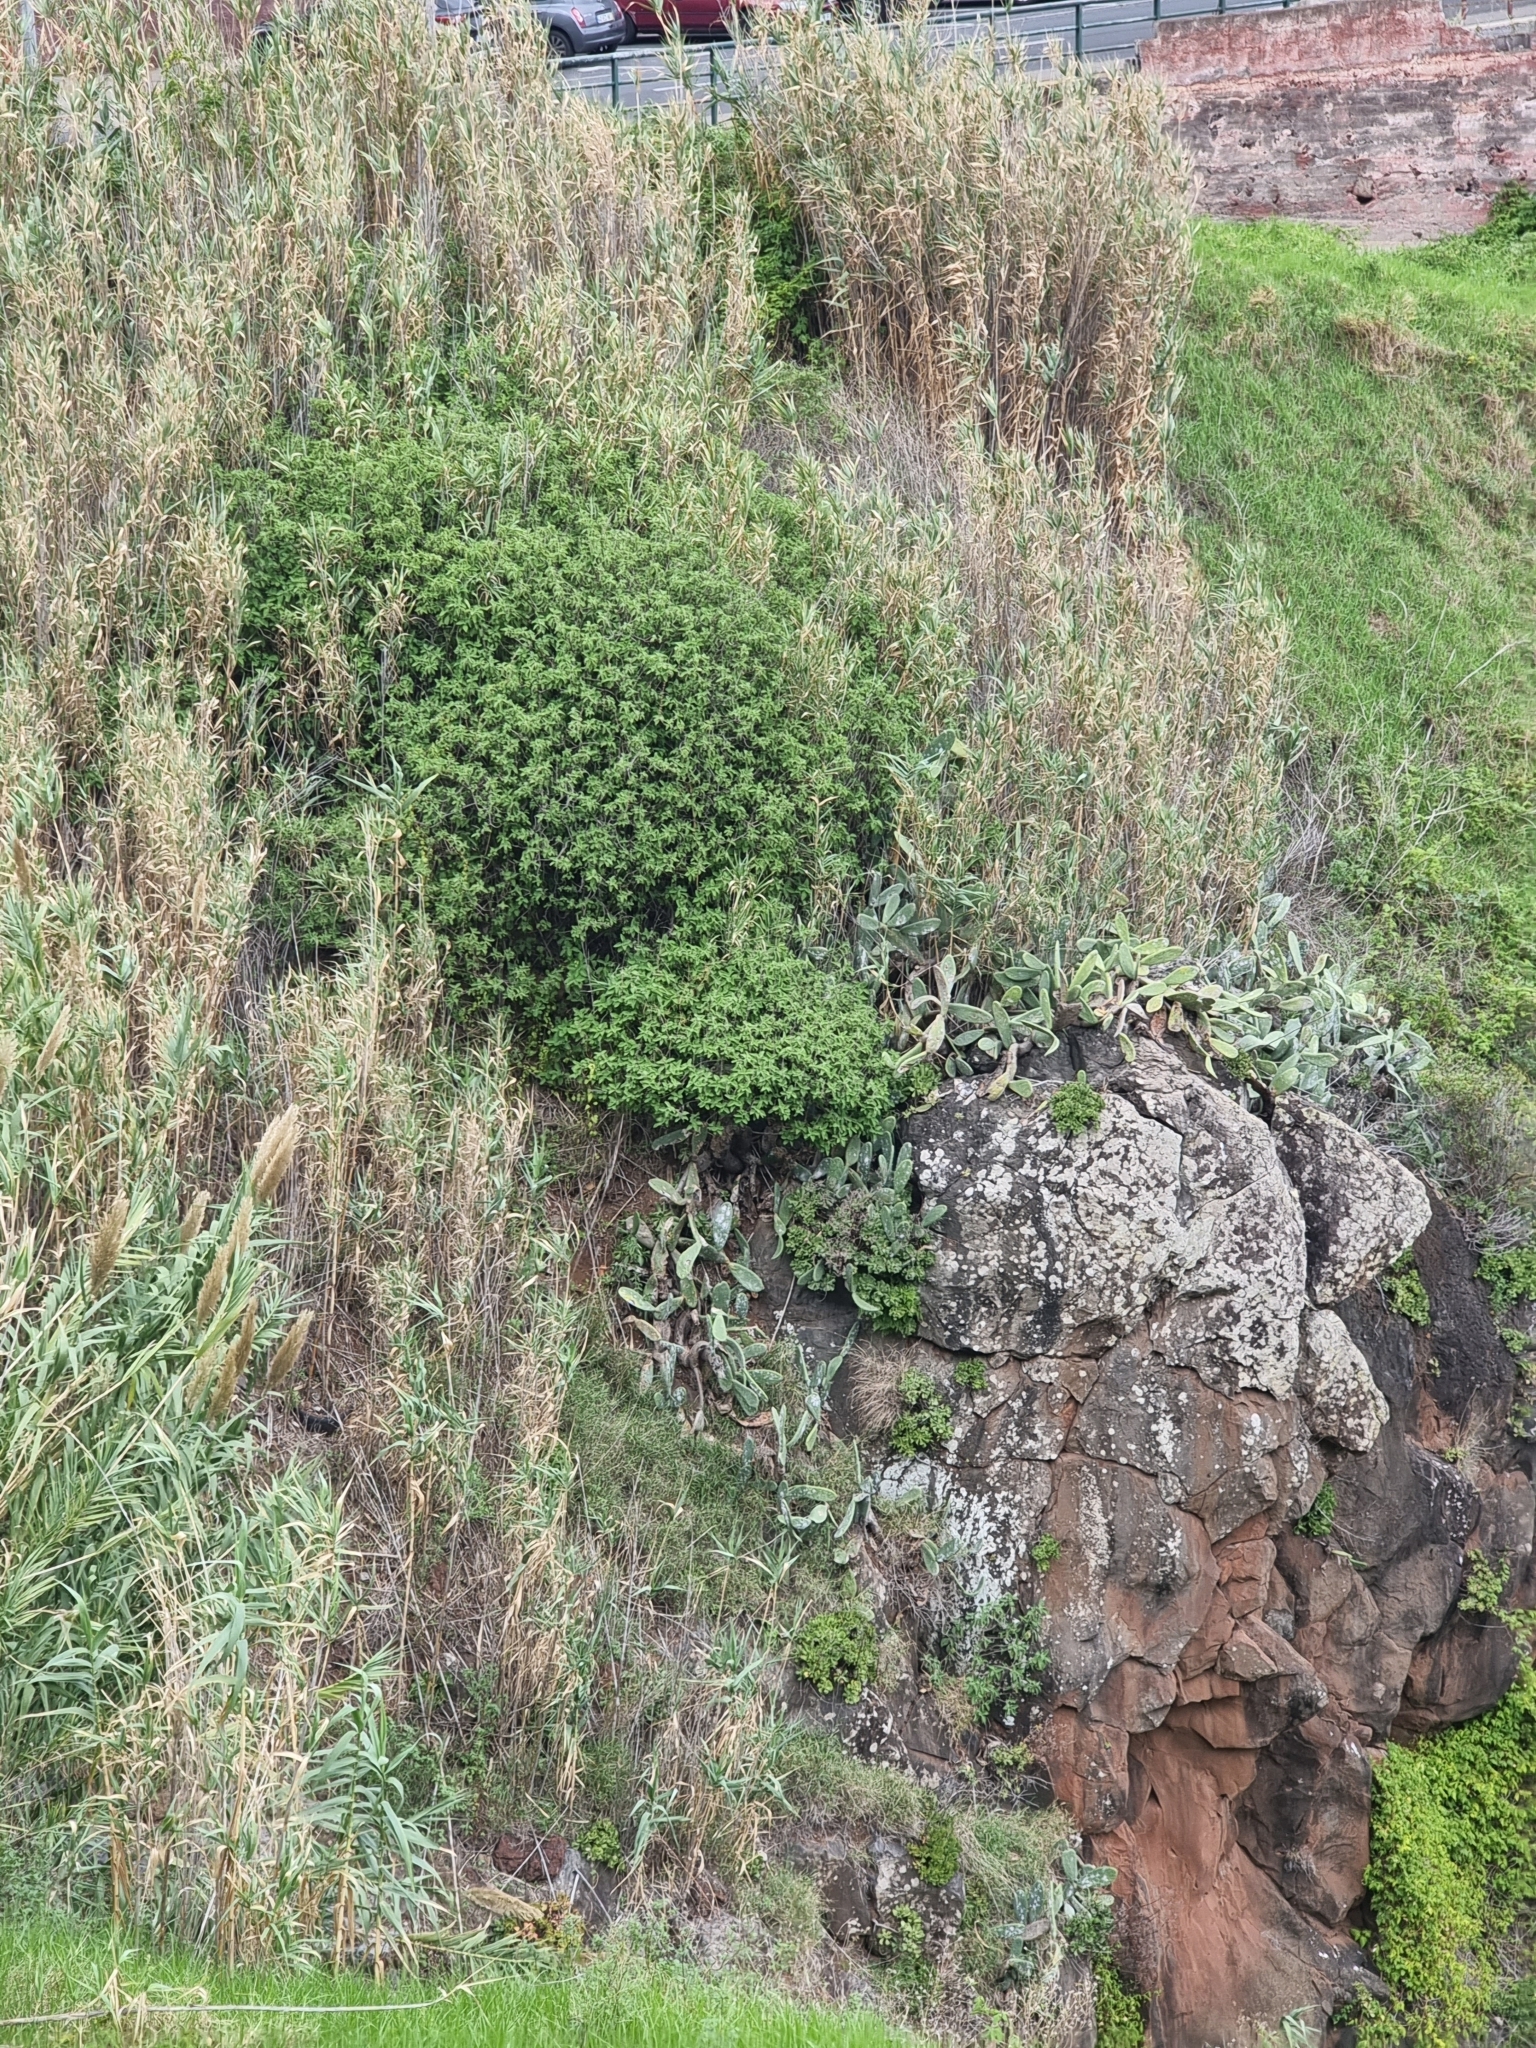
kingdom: Plantae
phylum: Tracheophyta
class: Magnoliopsida
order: Lamiales
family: Lamiaceae
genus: Coleus
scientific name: Coleus barbatus
